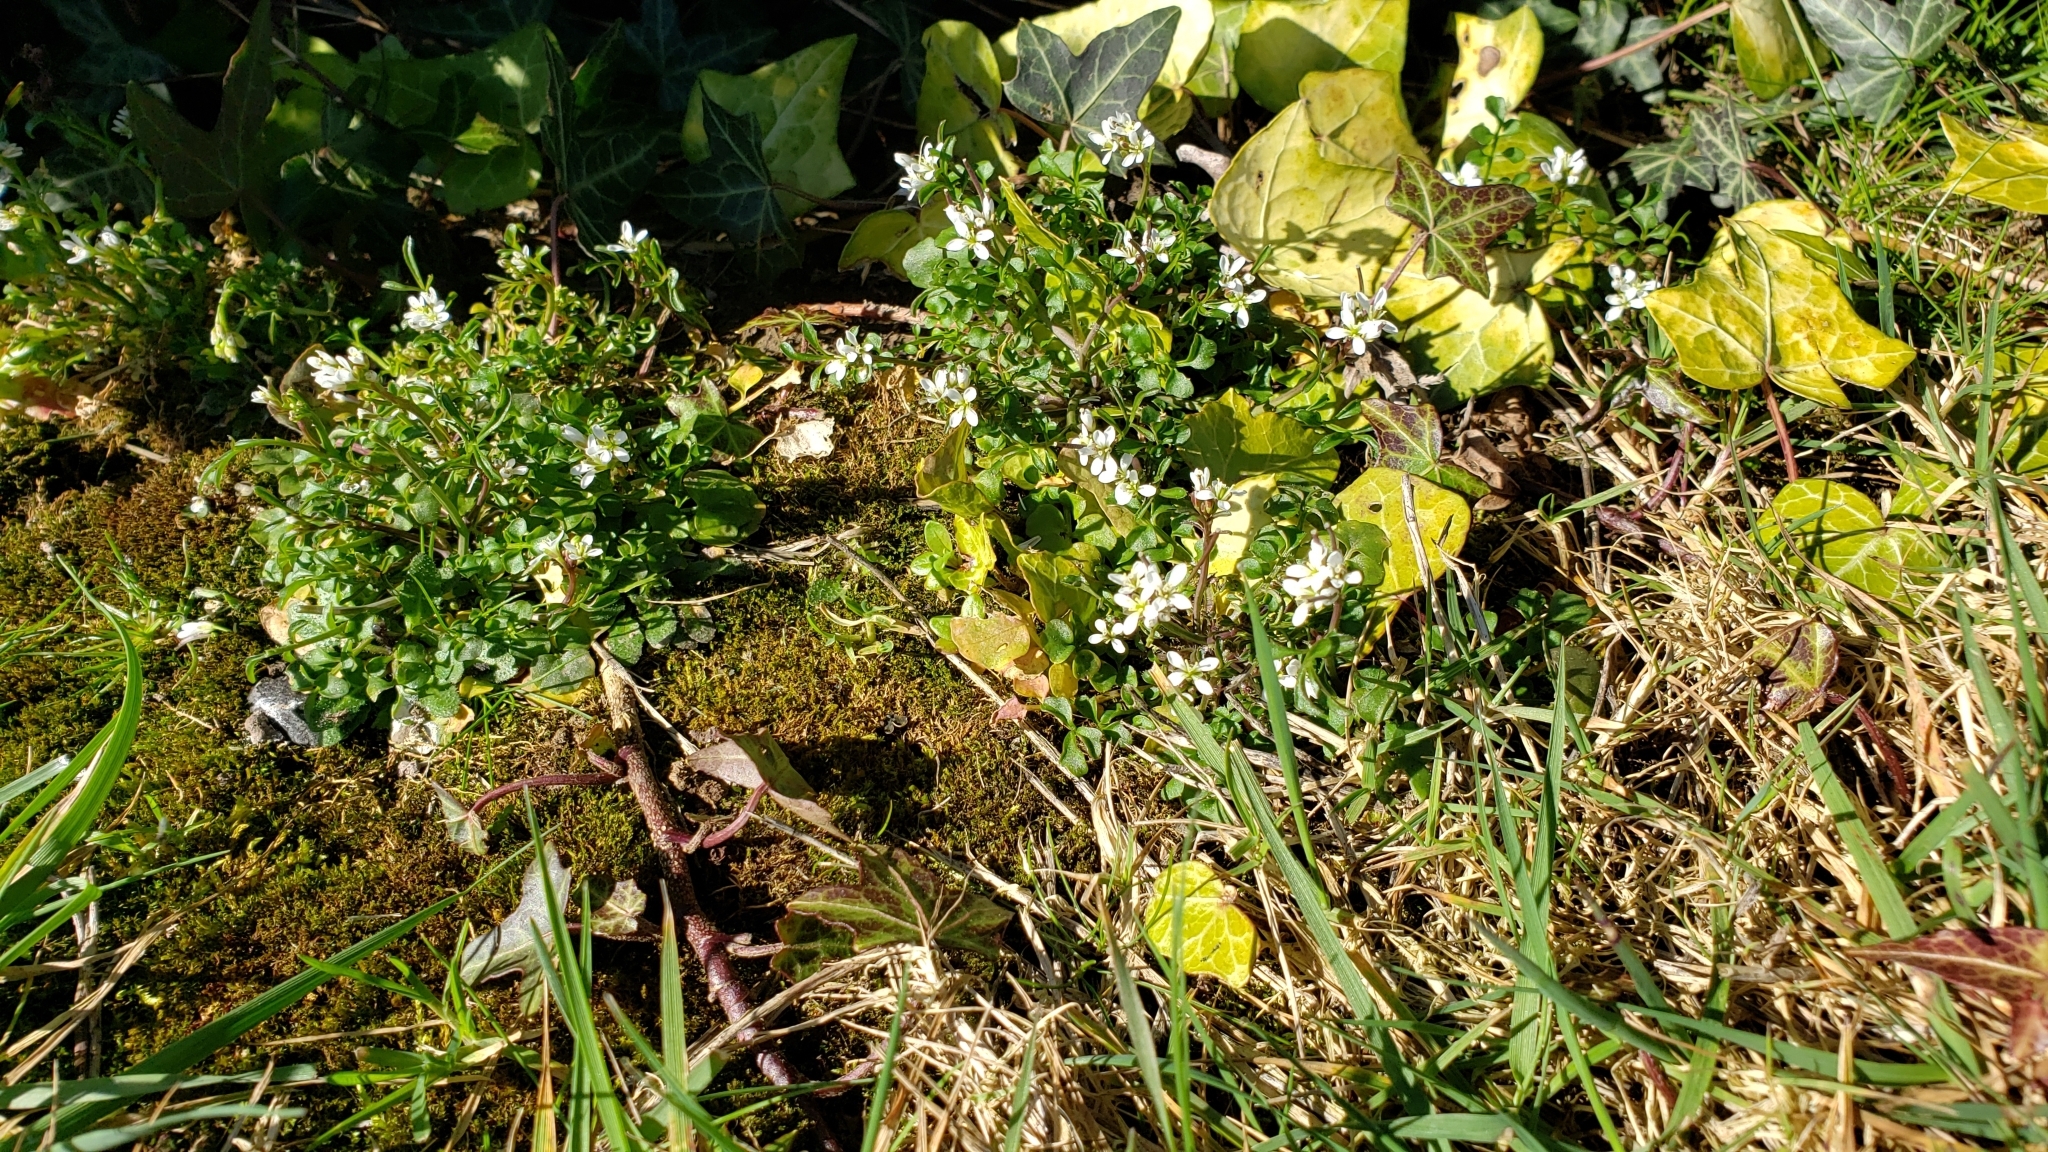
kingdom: Plantae
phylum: Tracheophyta
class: Magnoliopsida
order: Brassicales
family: Brassicaceae
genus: Cardamine
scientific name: Cardamine hirsuta
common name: Hairy bittercress
